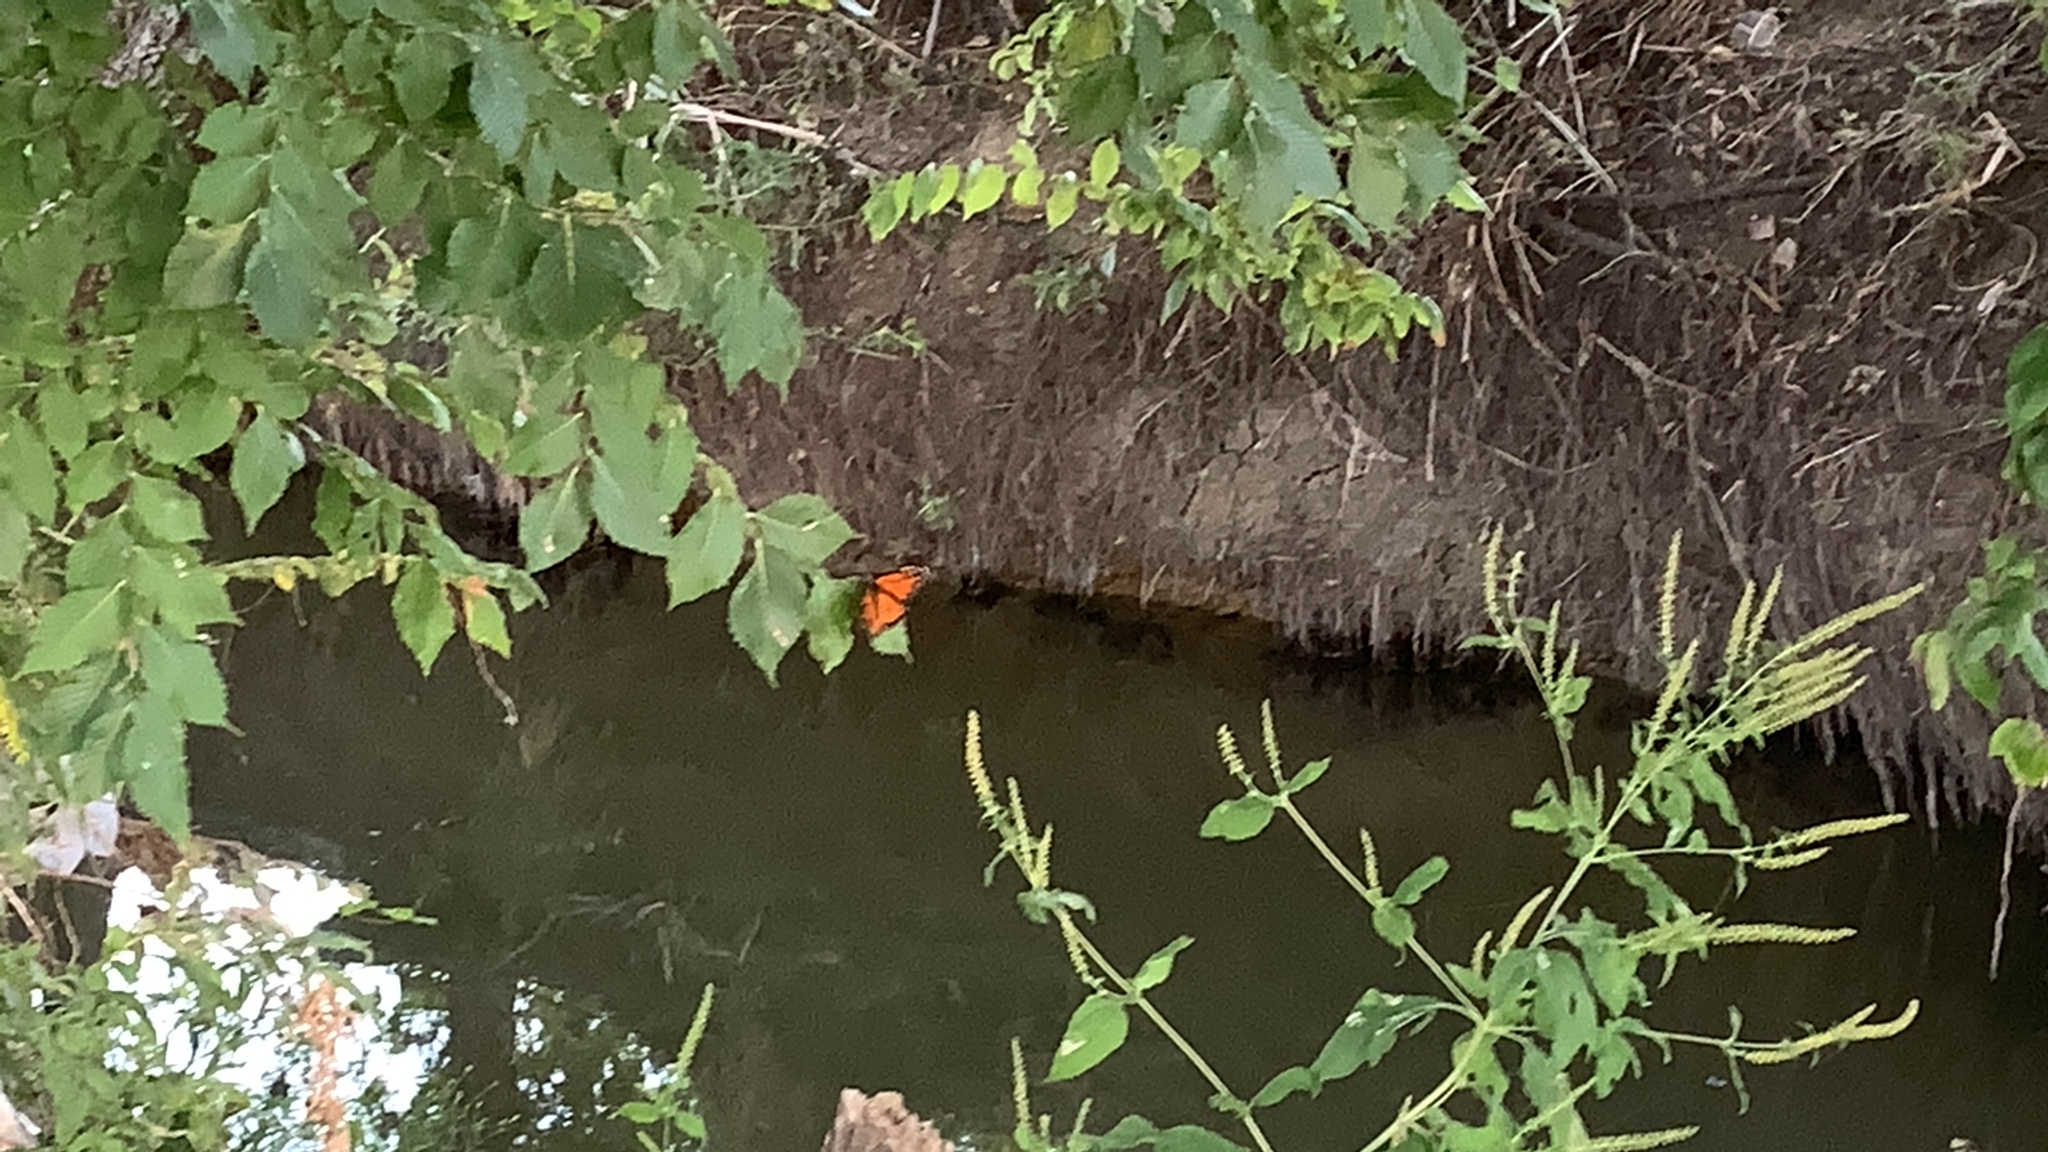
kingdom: Animalia
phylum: Arthropoda
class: Insecta
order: Lepidoptera
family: Nymphalidae
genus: Danaus
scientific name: Danaus plexippus
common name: Monarch
